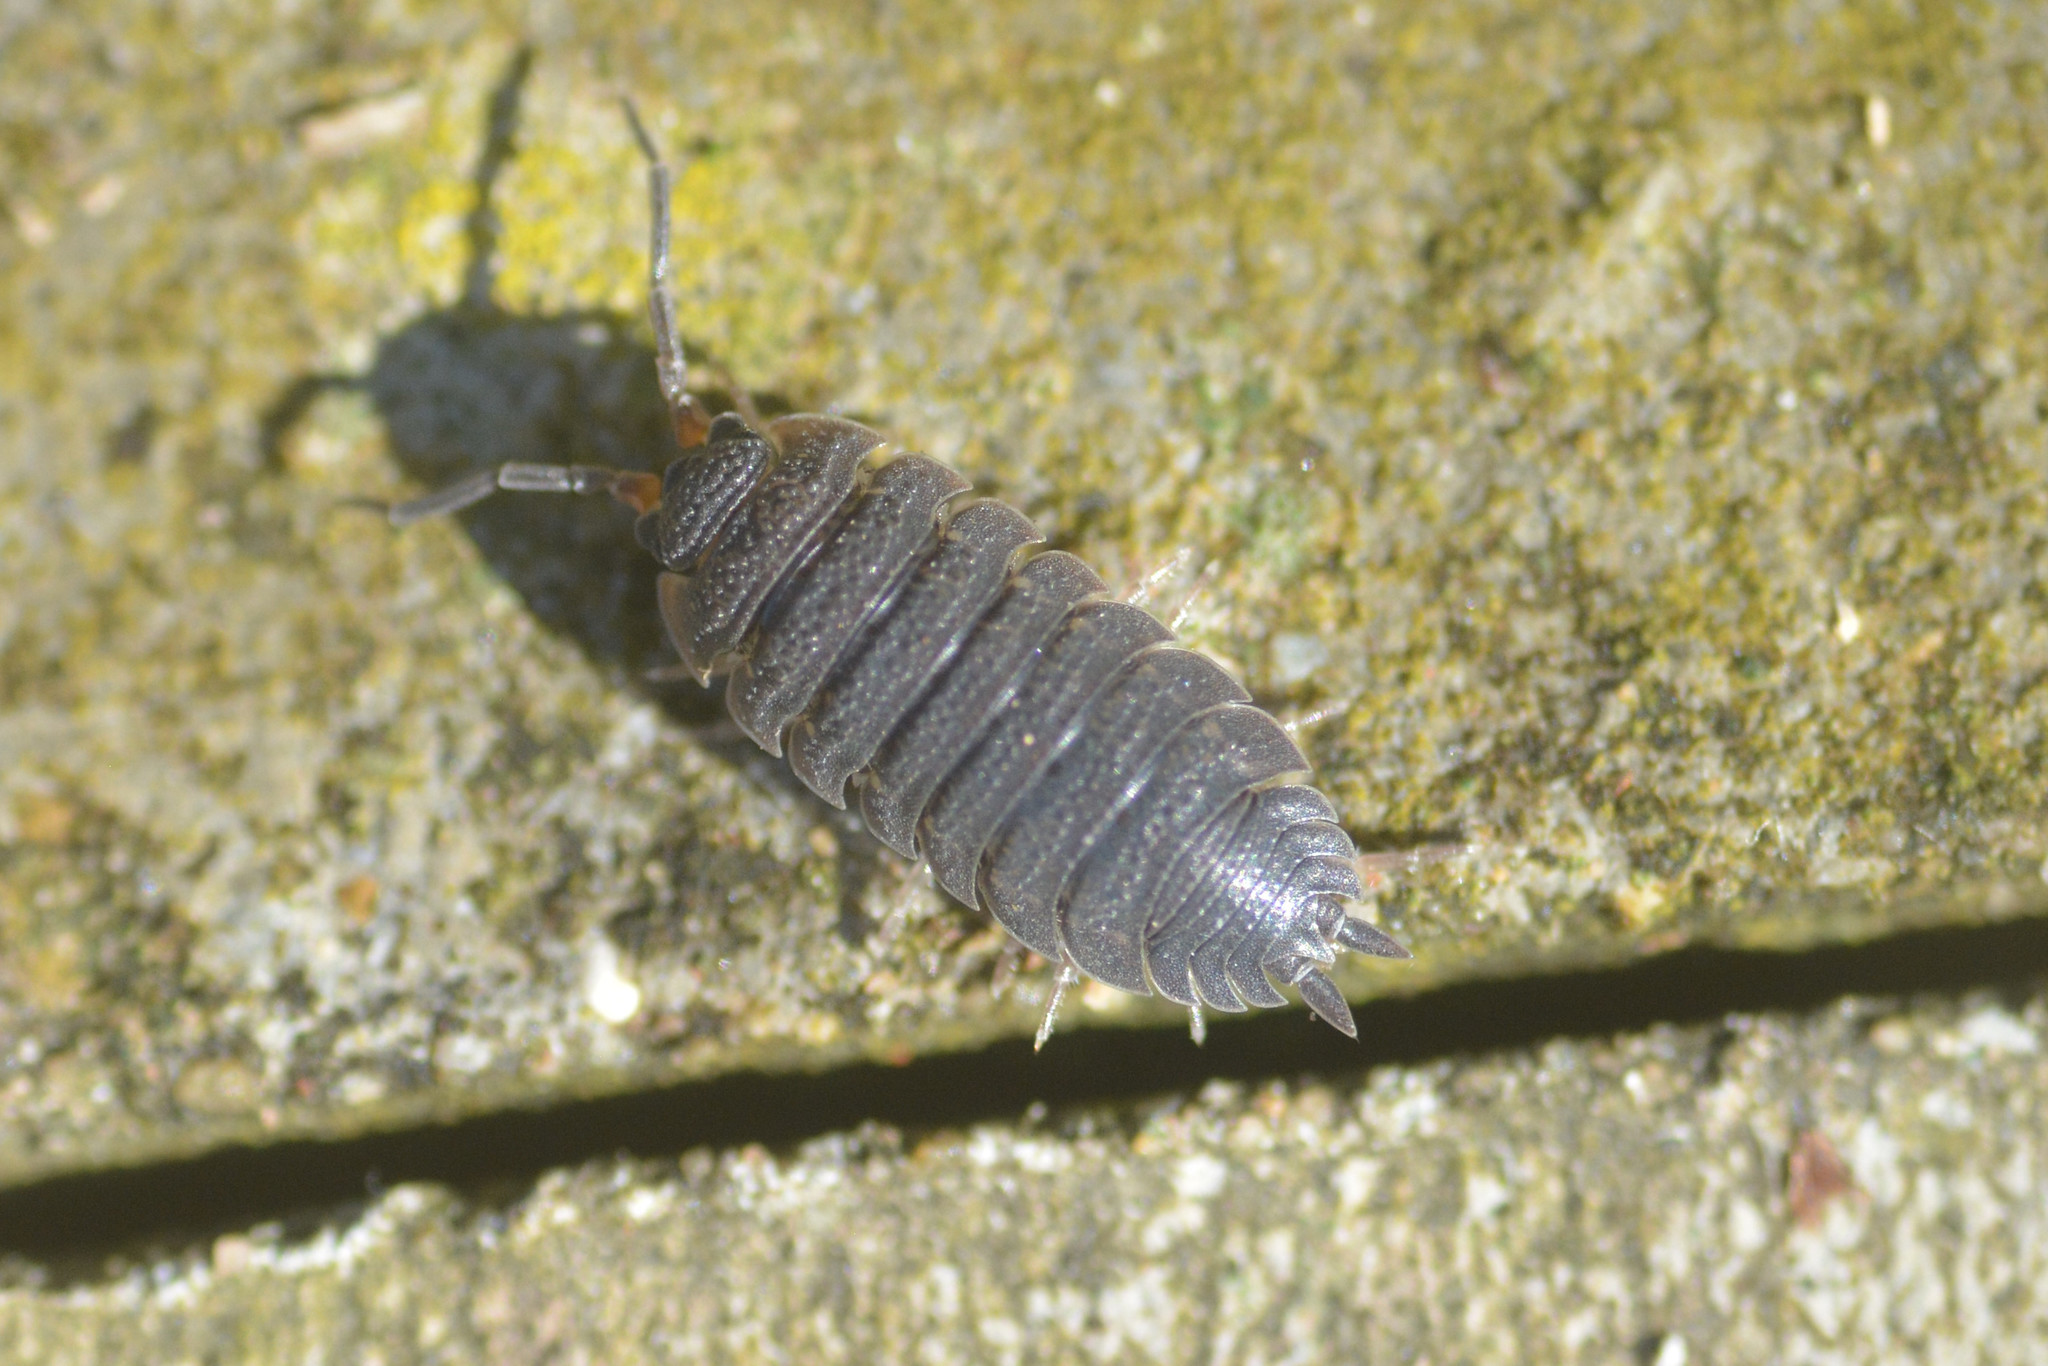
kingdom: Animalia
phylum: Arthropoda
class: Malacostraca
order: Isopoda
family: Porcellionidae
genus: Porcellio
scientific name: Porcellio scaber
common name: Common rough woodlouse
